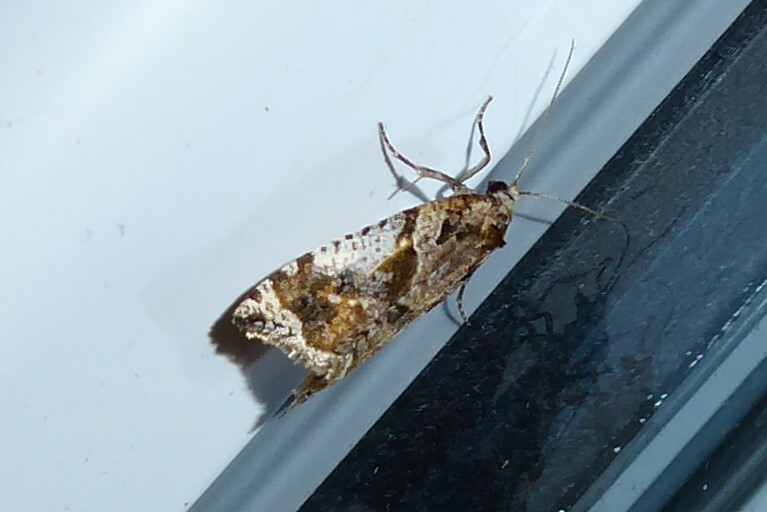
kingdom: Animalia
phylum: Arthropoda
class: Insecta
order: Lepidoptera
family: Tortricidae
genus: Pyrgotis
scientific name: Pyrgotis plagiatana
